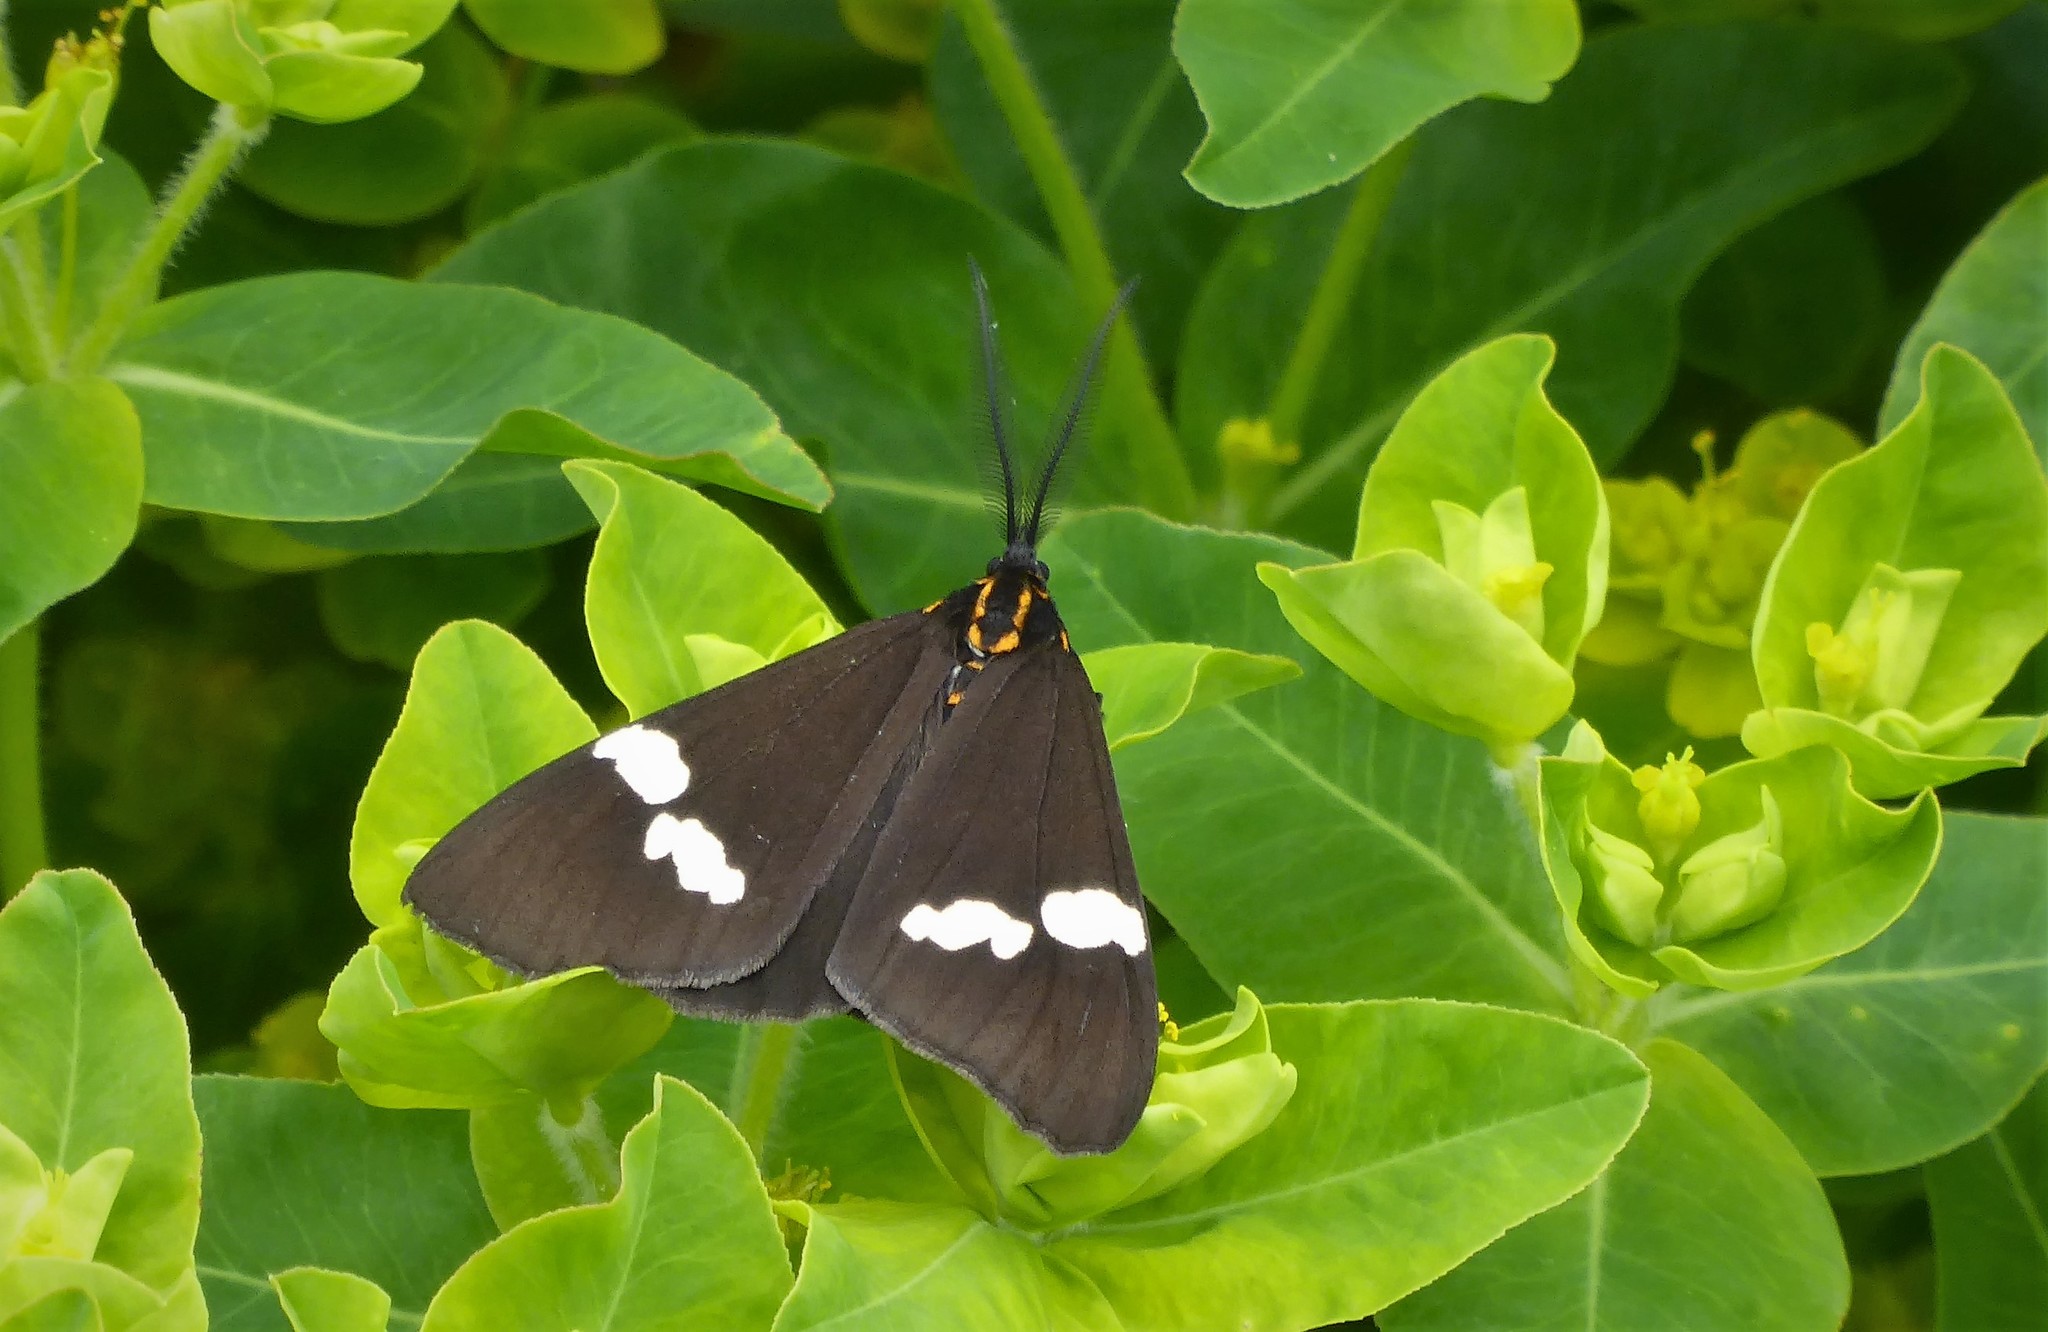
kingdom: Animalia
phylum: Arthropoda
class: Insecta
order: Lepidoptera
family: Erebidae
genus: Nyctemera
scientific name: Nyctemera annulatum
